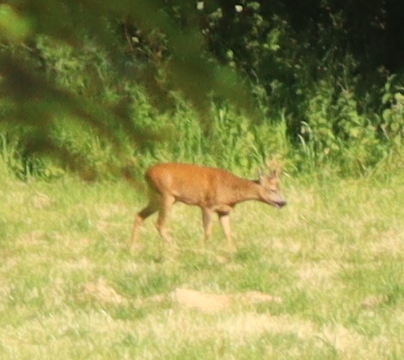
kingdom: Animalia
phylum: Chordata
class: Mammalia
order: Artiodactyla
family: Cervidae
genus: Capreolus
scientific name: Capreolus capreolus
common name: Western roe deer
